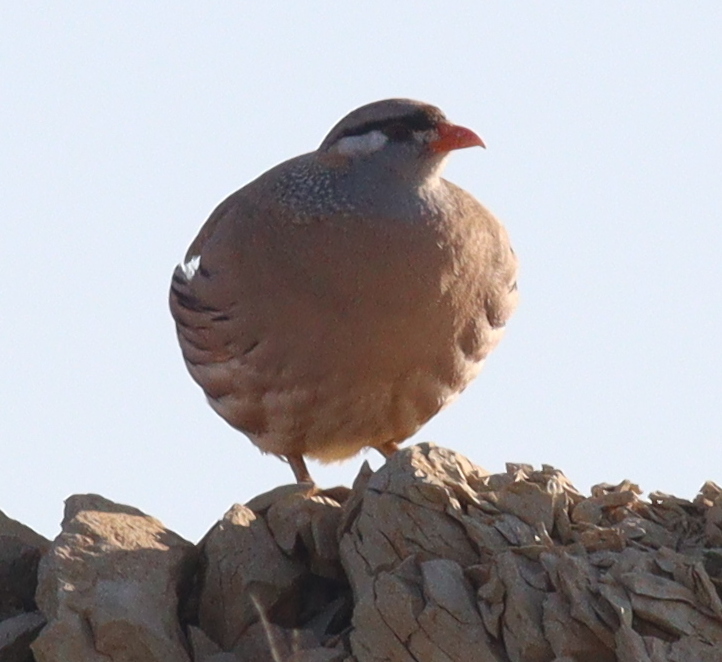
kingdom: Animalia
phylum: Chordata
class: Aves
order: Galliformes
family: Phasianidae
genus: Ammoperdix
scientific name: Ammoperdix griseogularis
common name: See-see partridge
